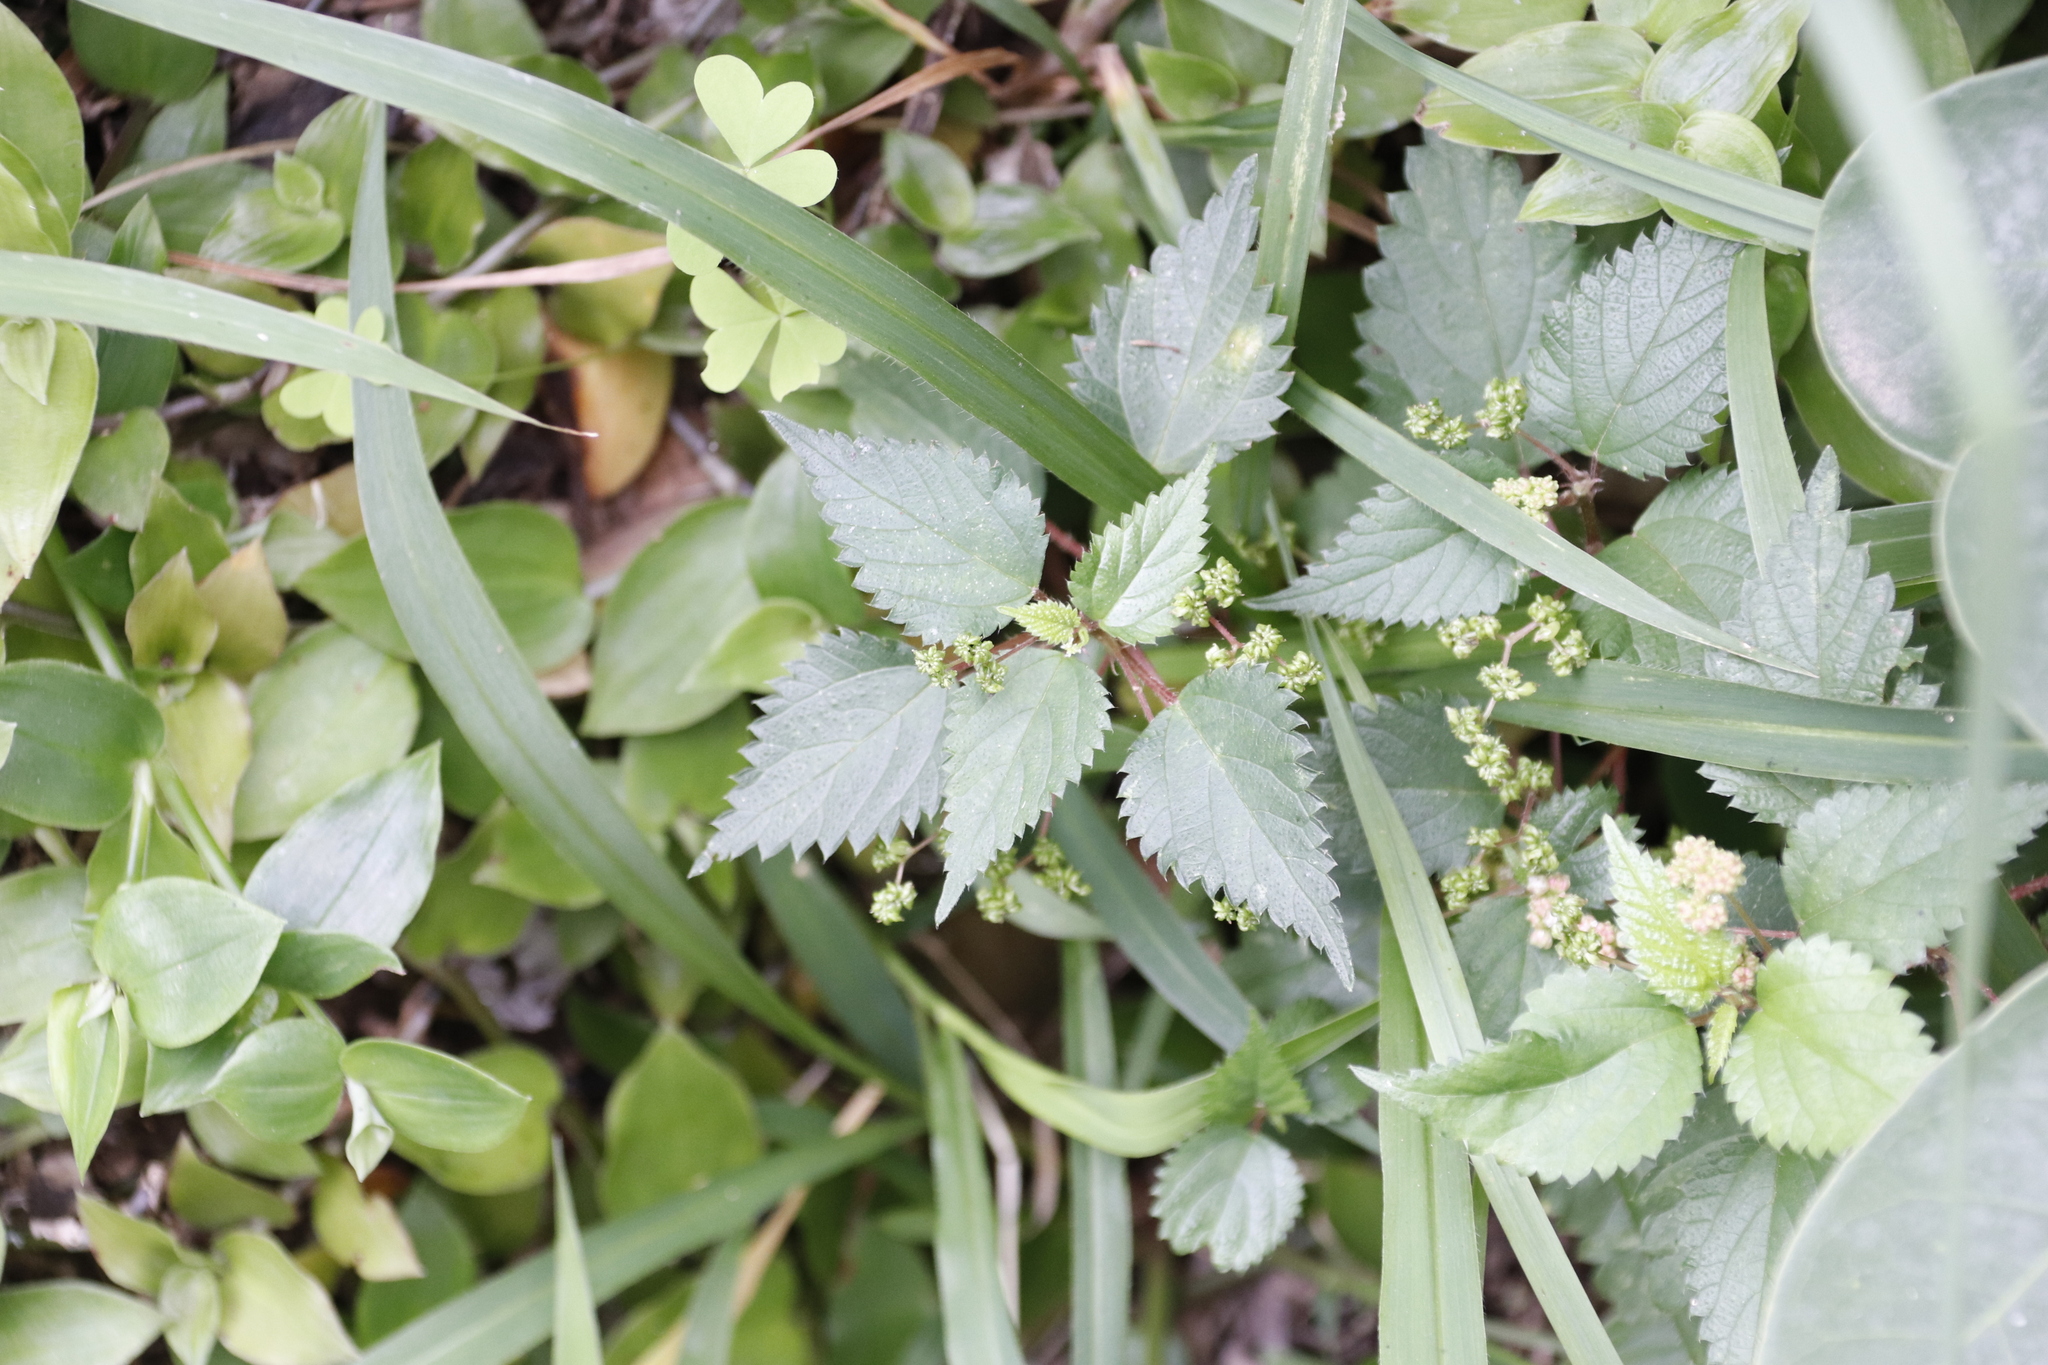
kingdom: Plantae
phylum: Tracheophyta
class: Magnoliopsida
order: Rosales
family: Urticaceae
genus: Laportea
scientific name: Laportea aestuans
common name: West indian woodnettle
